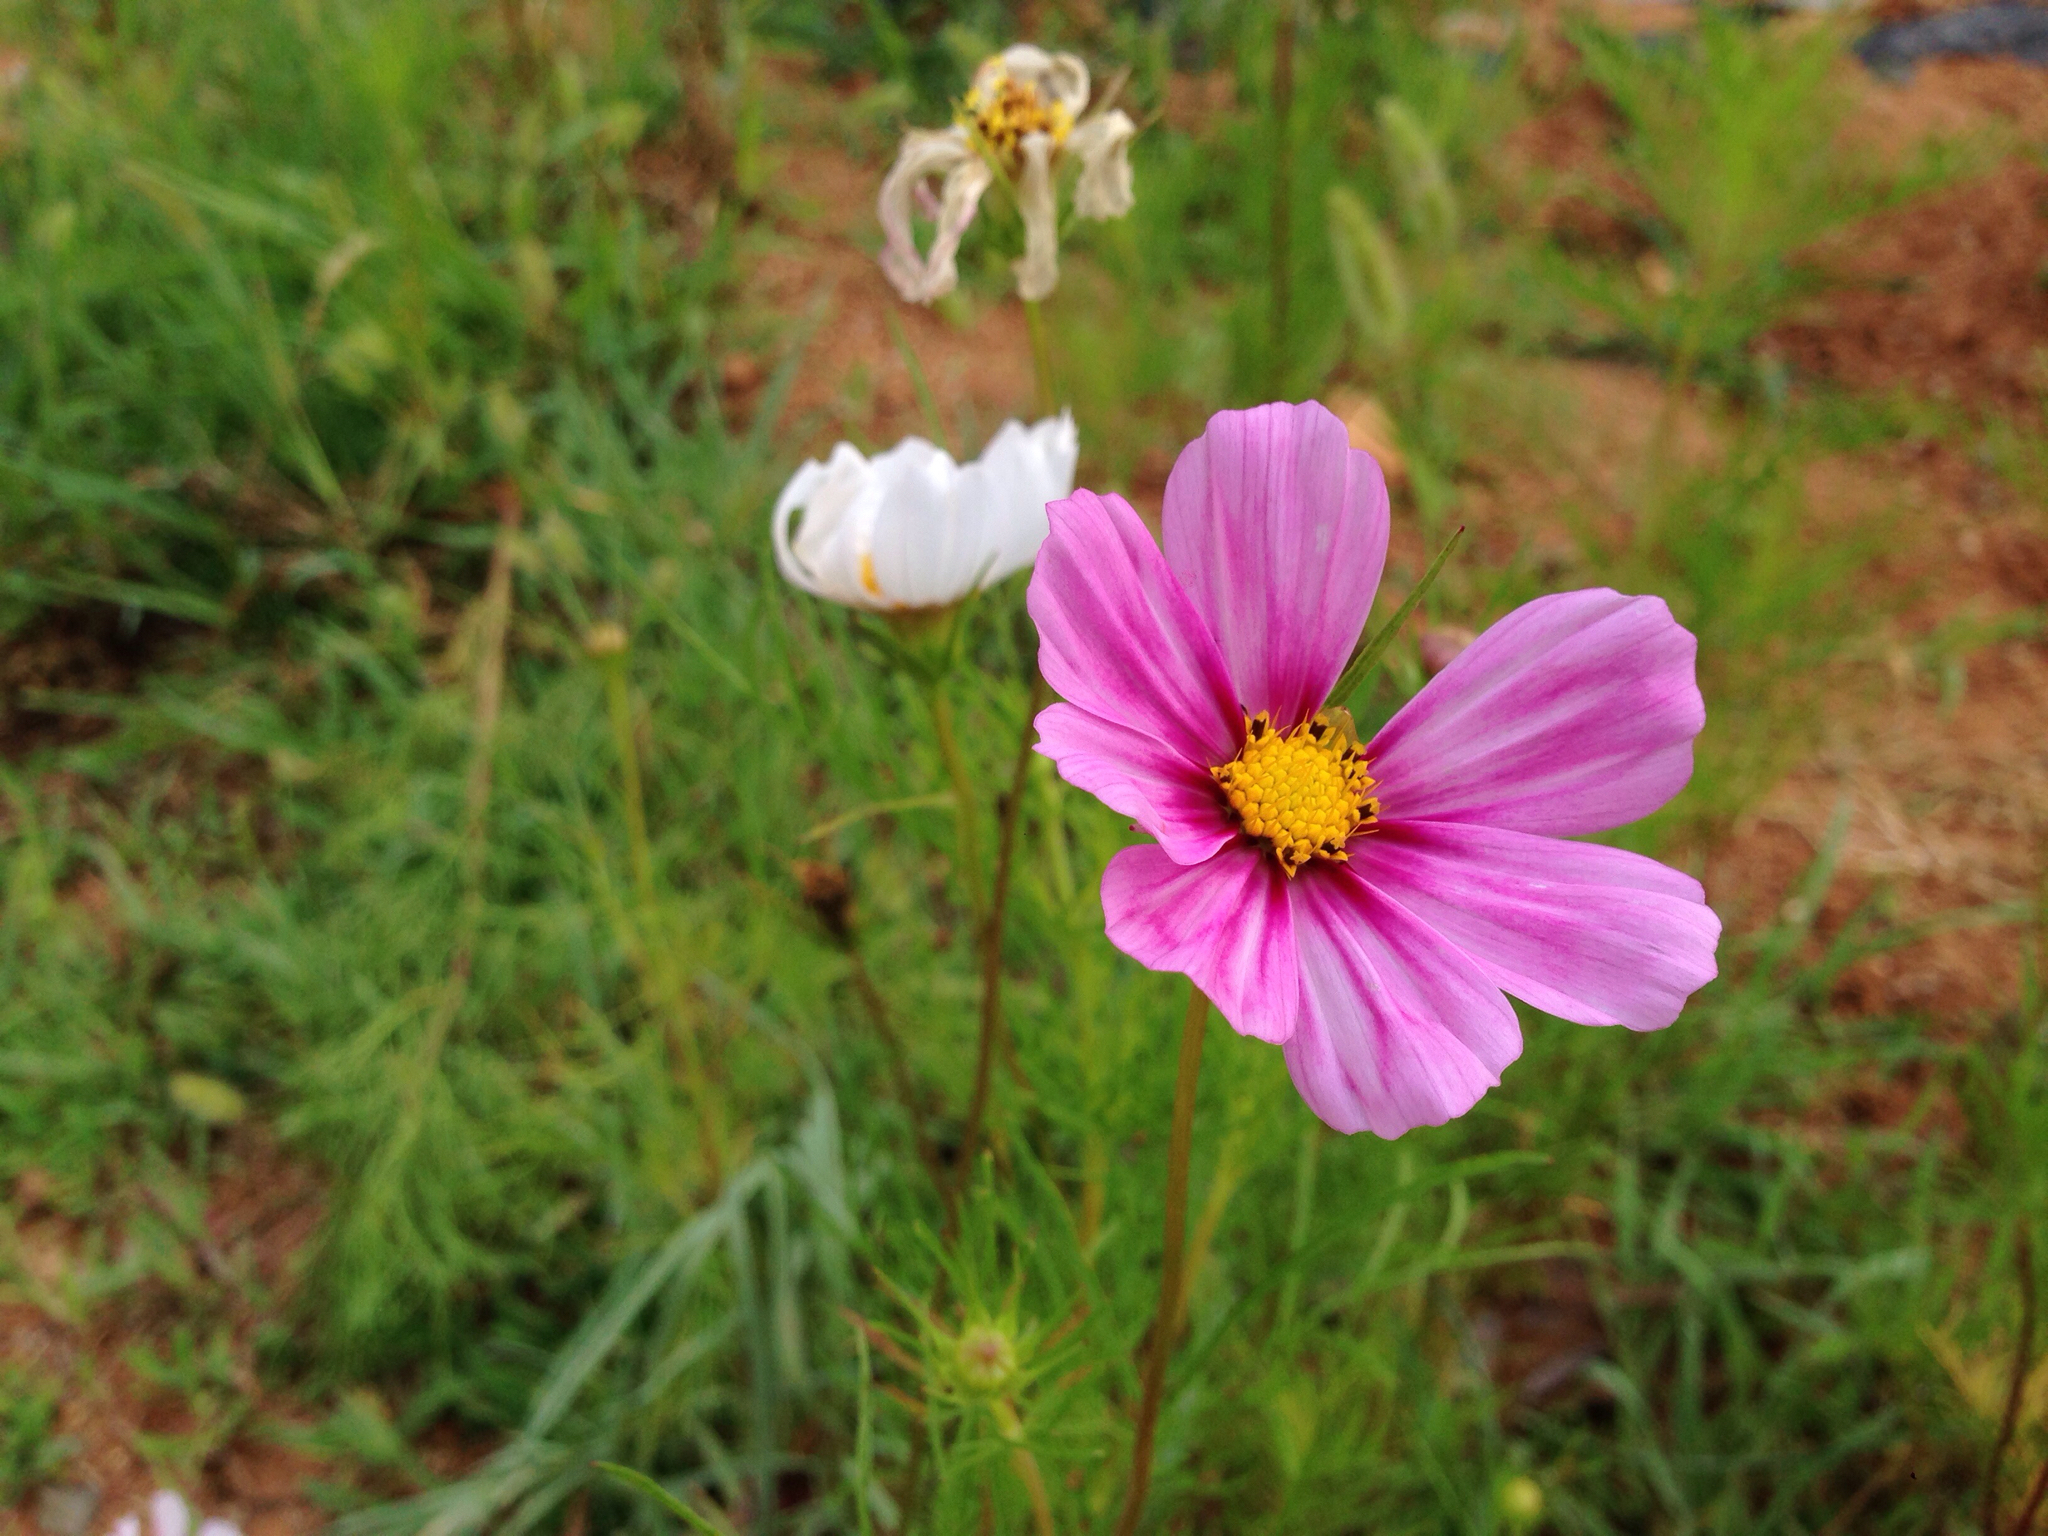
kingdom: Plantae
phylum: Tracheophyta
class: Magnoliopsida
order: Asterales
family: Asteraceae
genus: Cosmos
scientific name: Cosmos bipinnatus
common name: Garden cosmos
